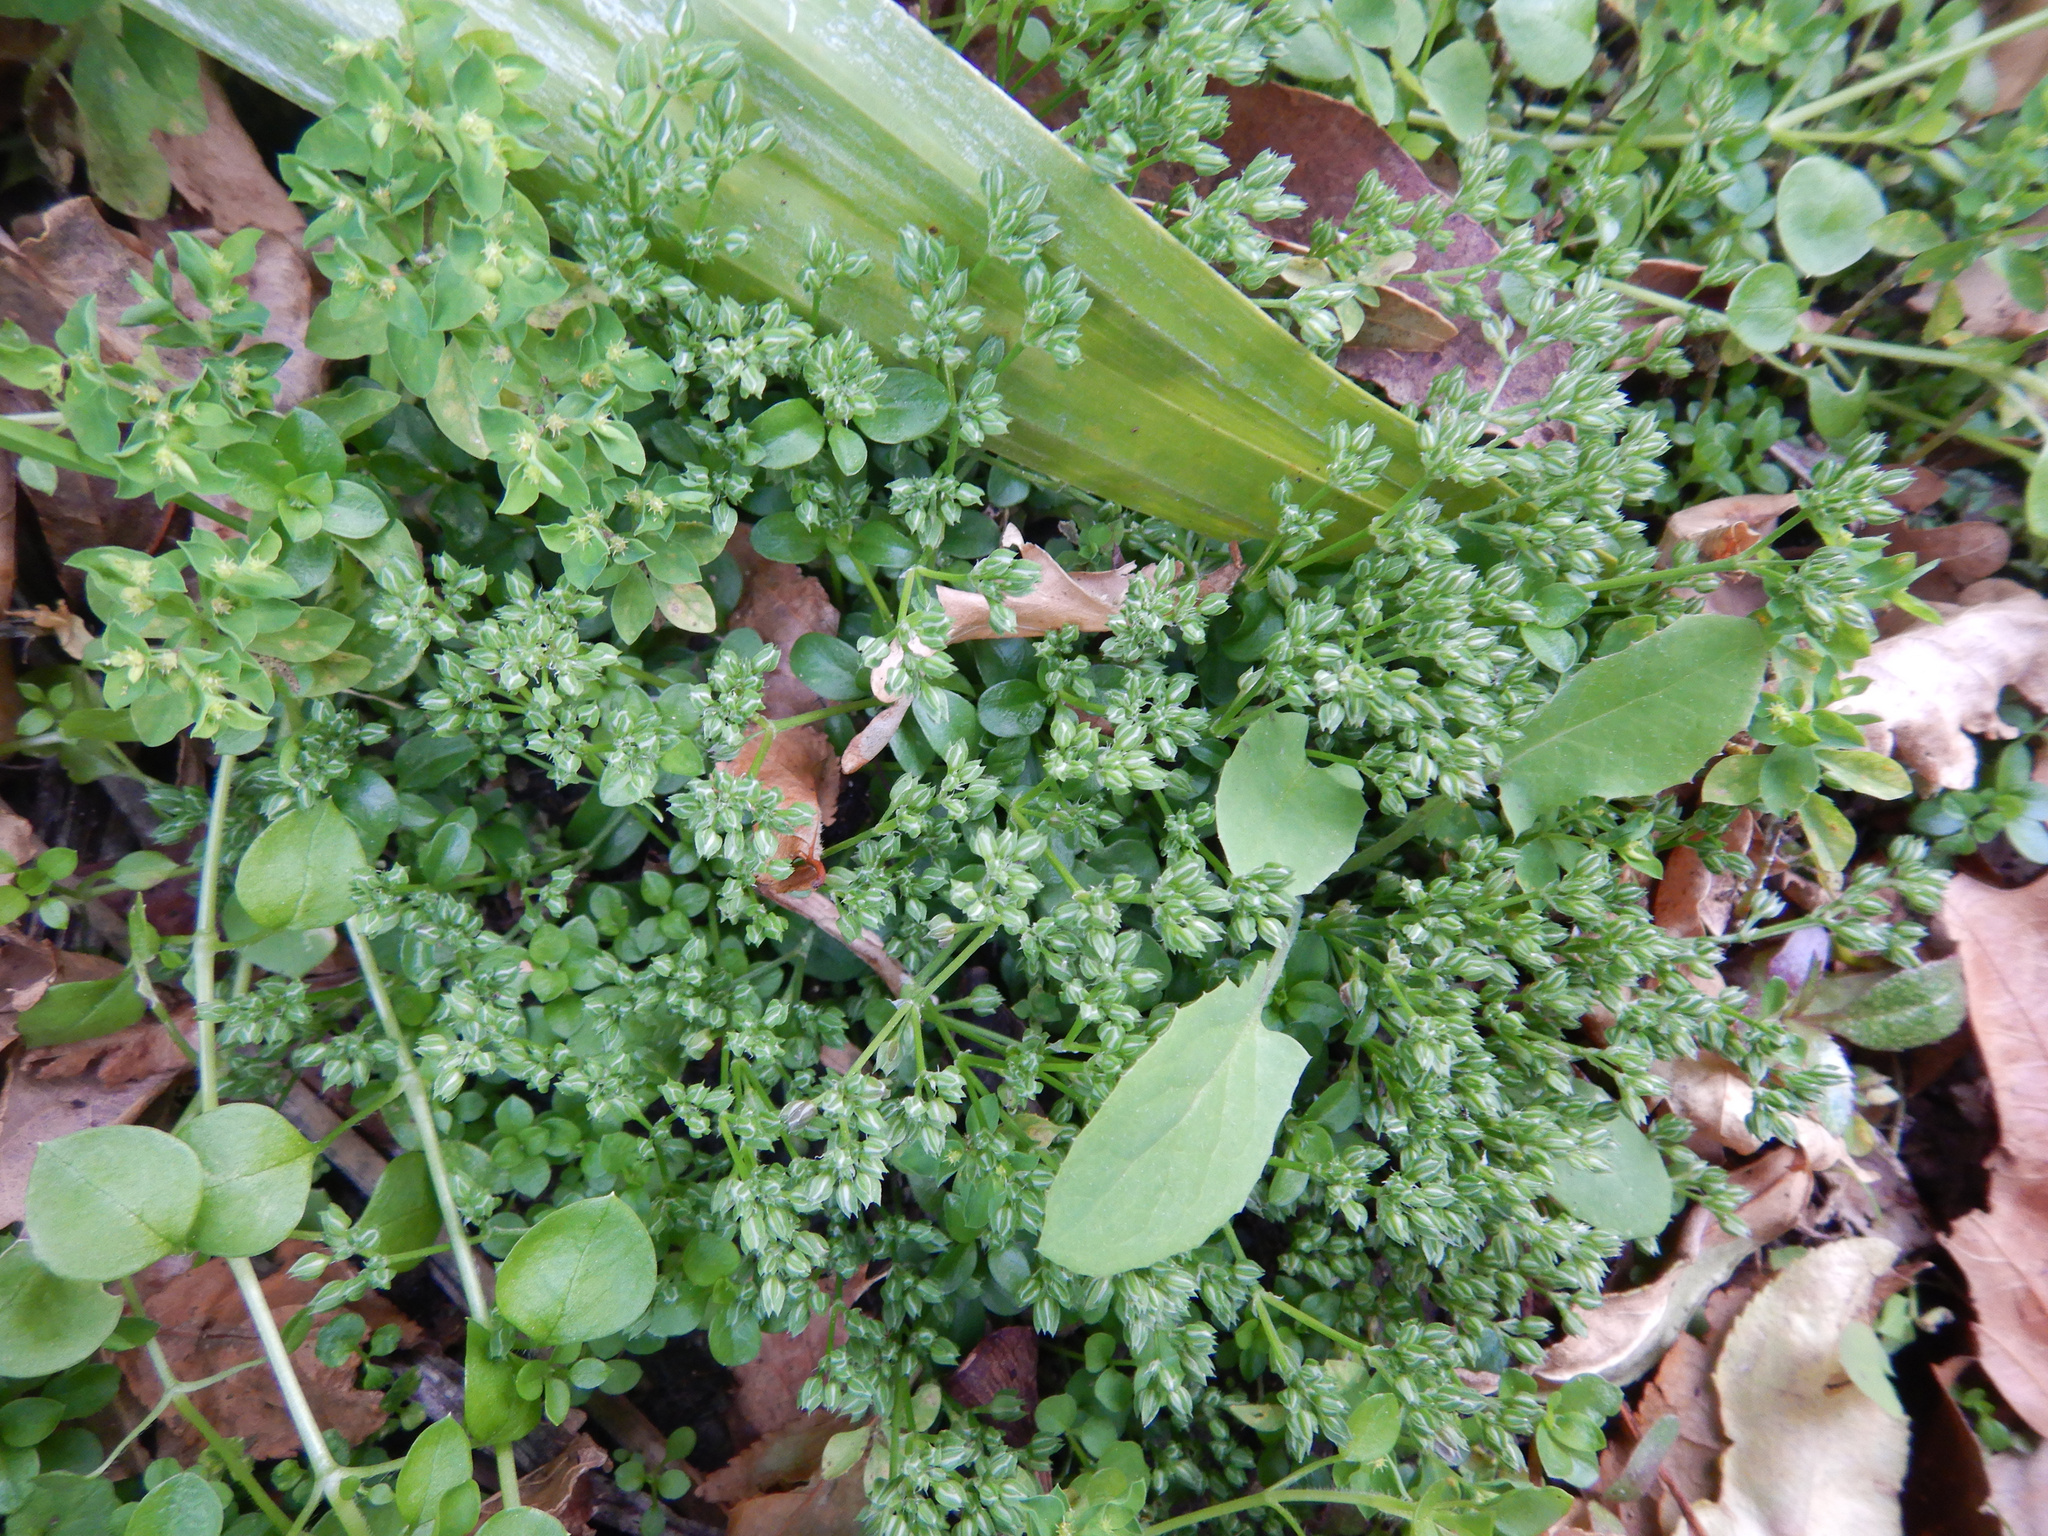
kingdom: Plantae
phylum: Tracheophyta
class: Magnoliopsida
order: Caryophyllales
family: Caryophyllaceae
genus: Polycarpon
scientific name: Polycarpon tetraphyllum
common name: Four-leaved all-seed
